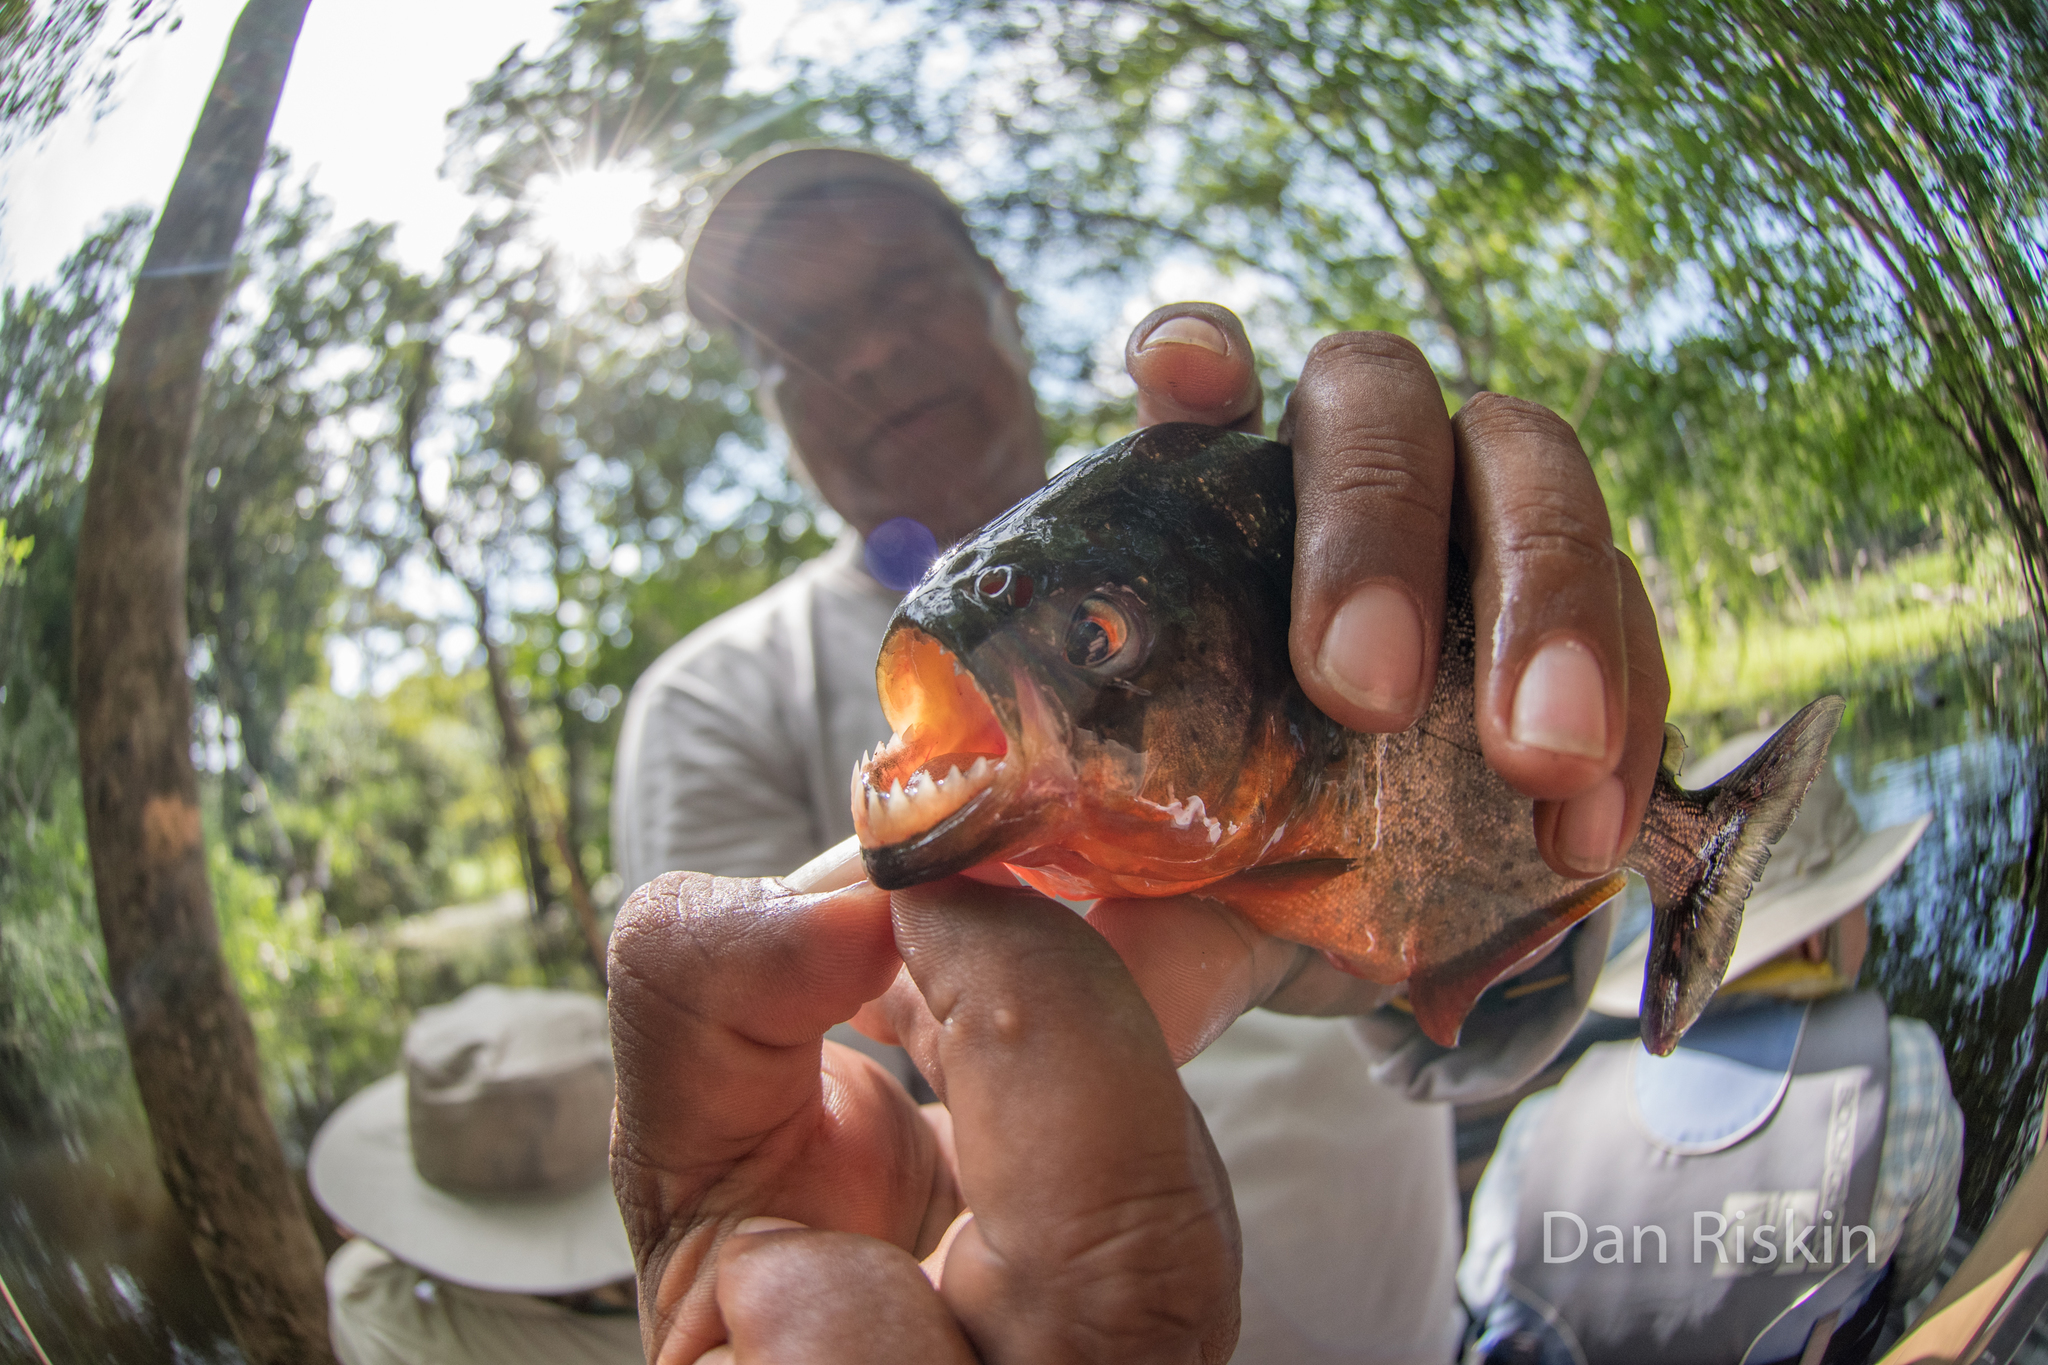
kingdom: Animalia
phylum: Chordata
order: Characiformes
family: Serrasalmidae
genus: Pygocentrus
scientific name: Pygocentrus nattereri
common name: Piranha
